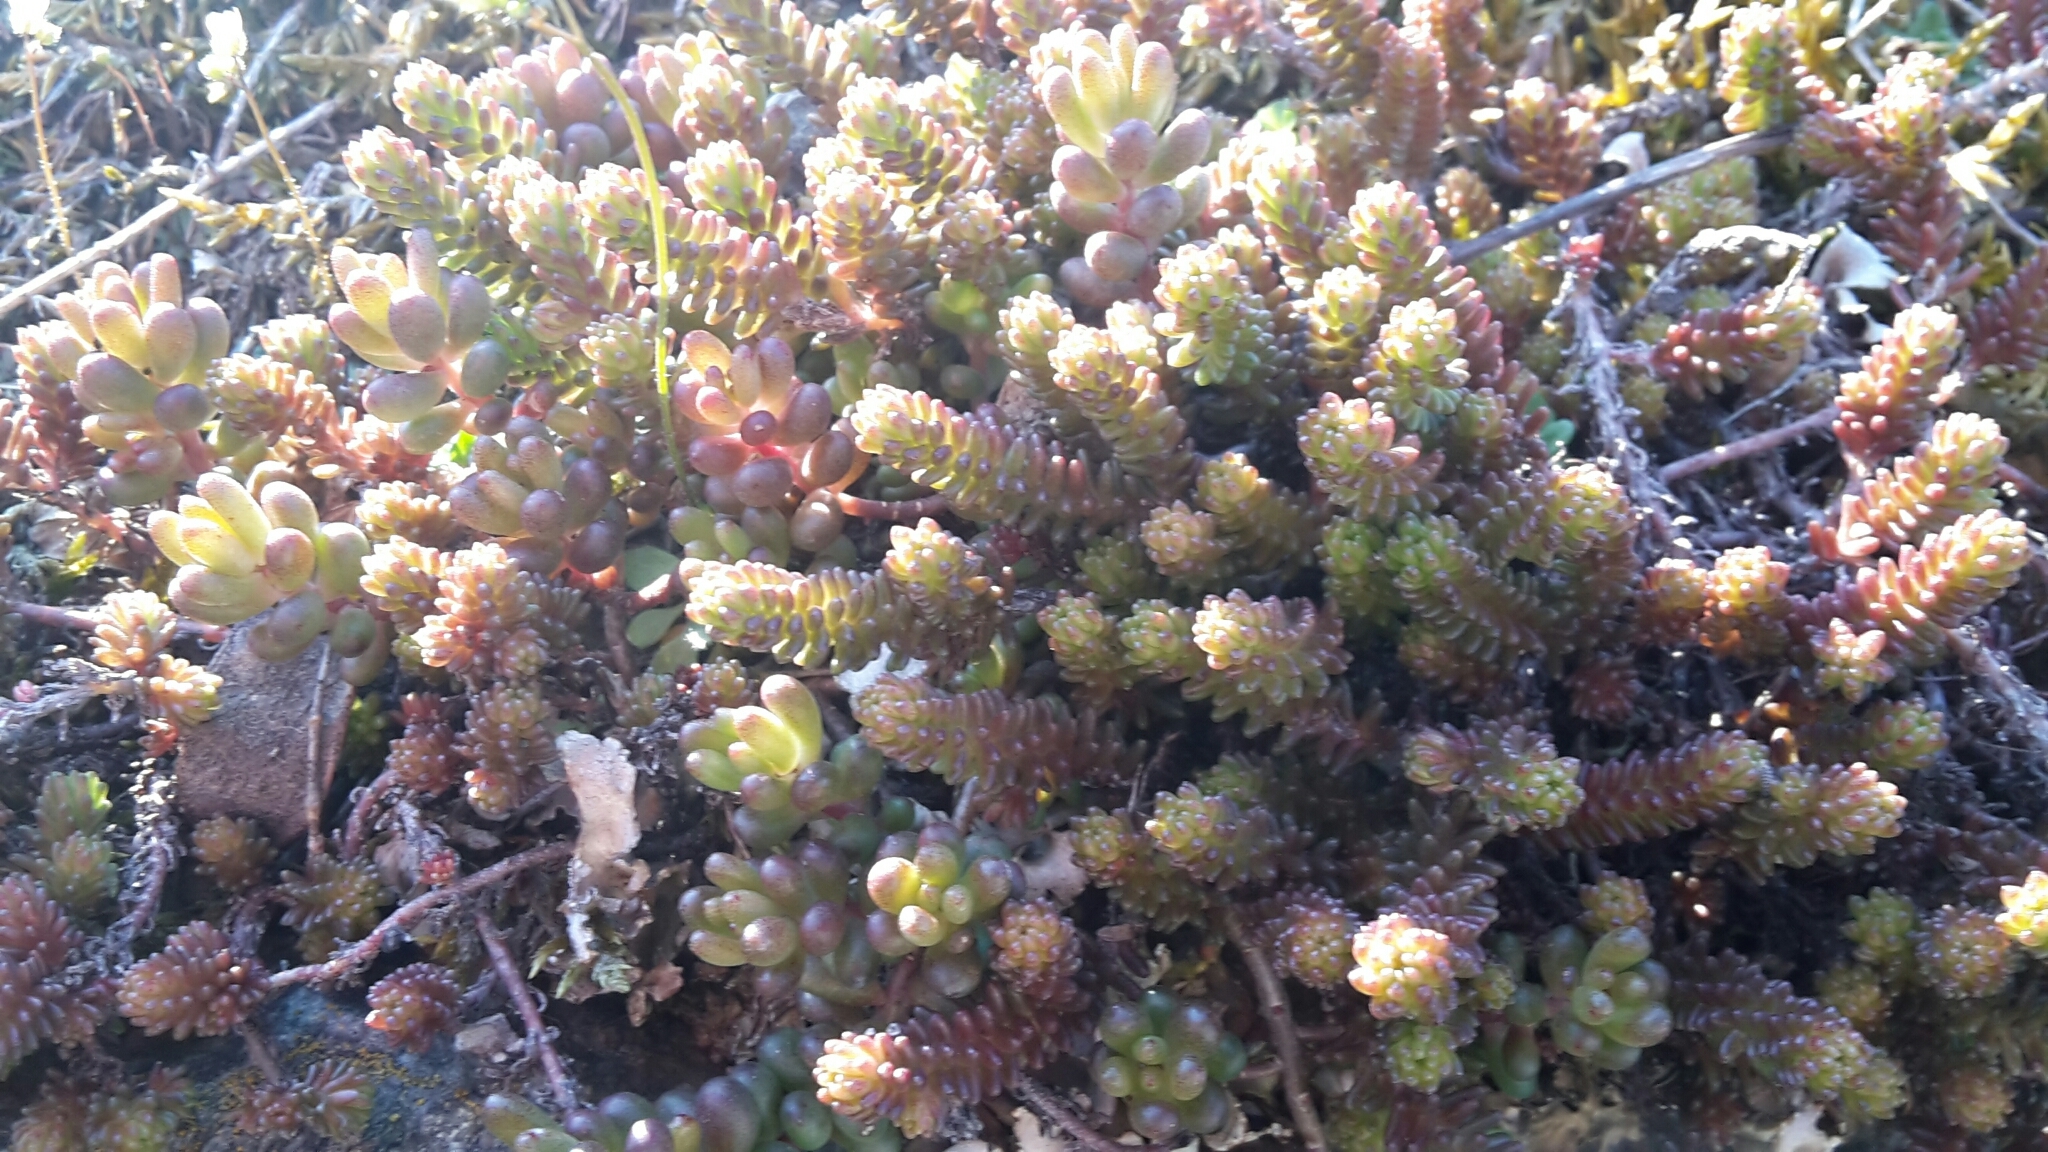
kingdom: Plantae
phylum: Tracheophyta
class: Magnoliopsida
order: Saxifragales
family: Crassulaceae
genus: Sedum
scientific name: Sedum sexangulare
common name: Tasteless stonecrop
